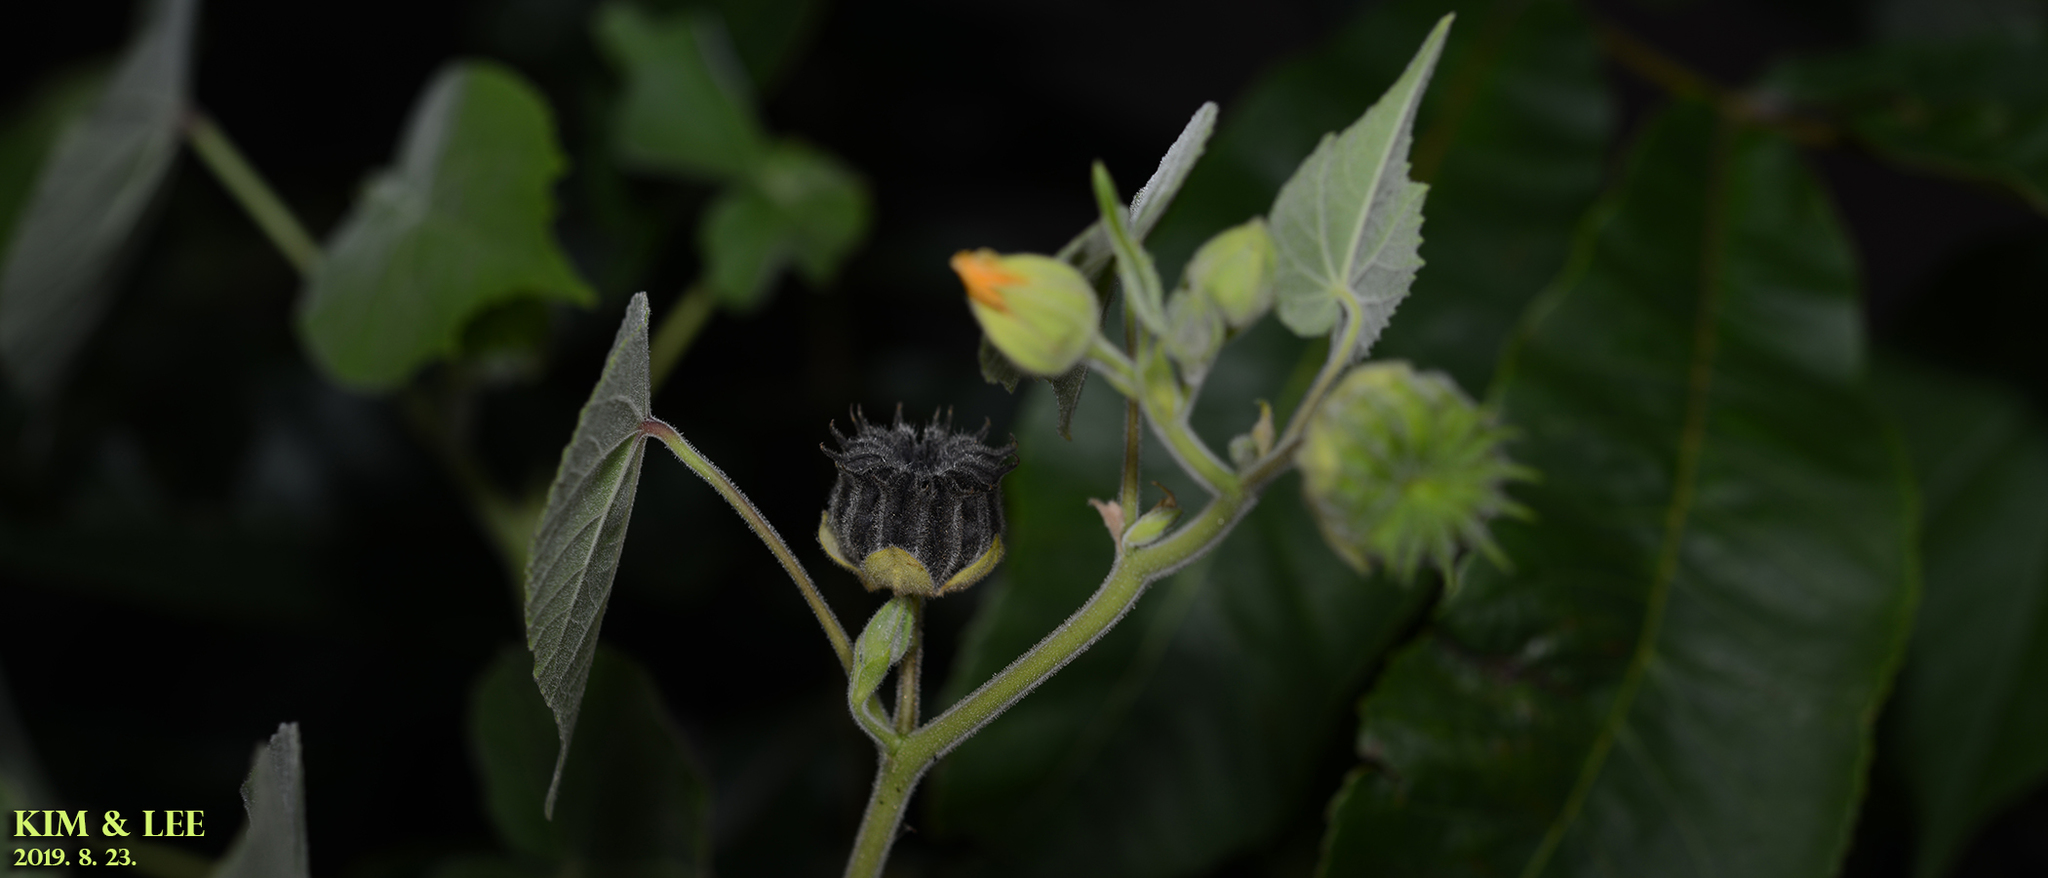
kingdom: Plantae
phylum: Tracheophyta
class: Magnoliopsida
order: Malvales
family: Malvaceae
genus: Abutilon
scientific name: Abutilon theophrasti
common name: Velvetleaf
